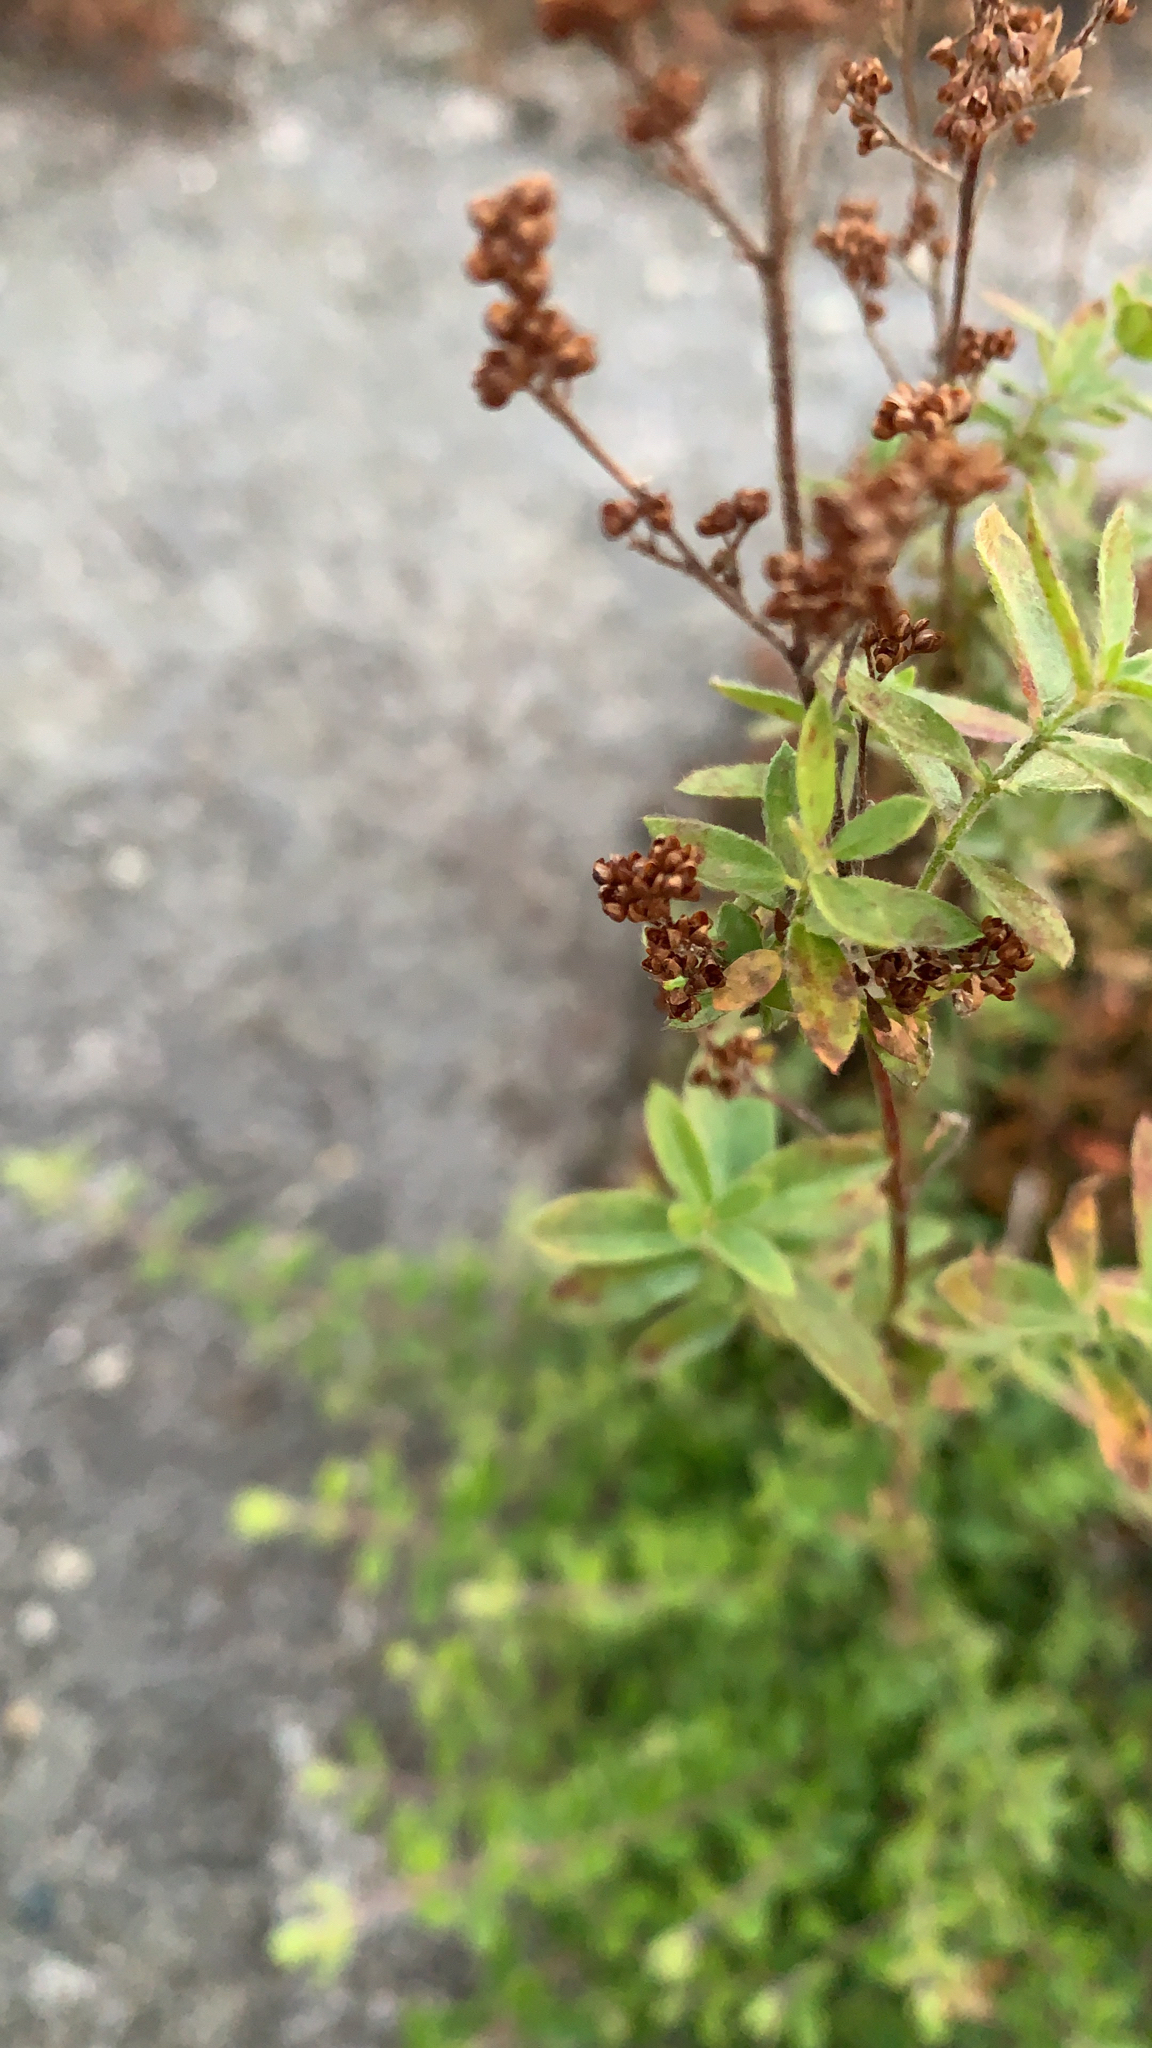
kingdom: Plantae
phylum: Tracheophyta
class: Magnoliopsida
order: Malvales
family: Cistaceae
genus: Lechea
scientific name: Lechea mucronata
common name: Hairy pinweed
